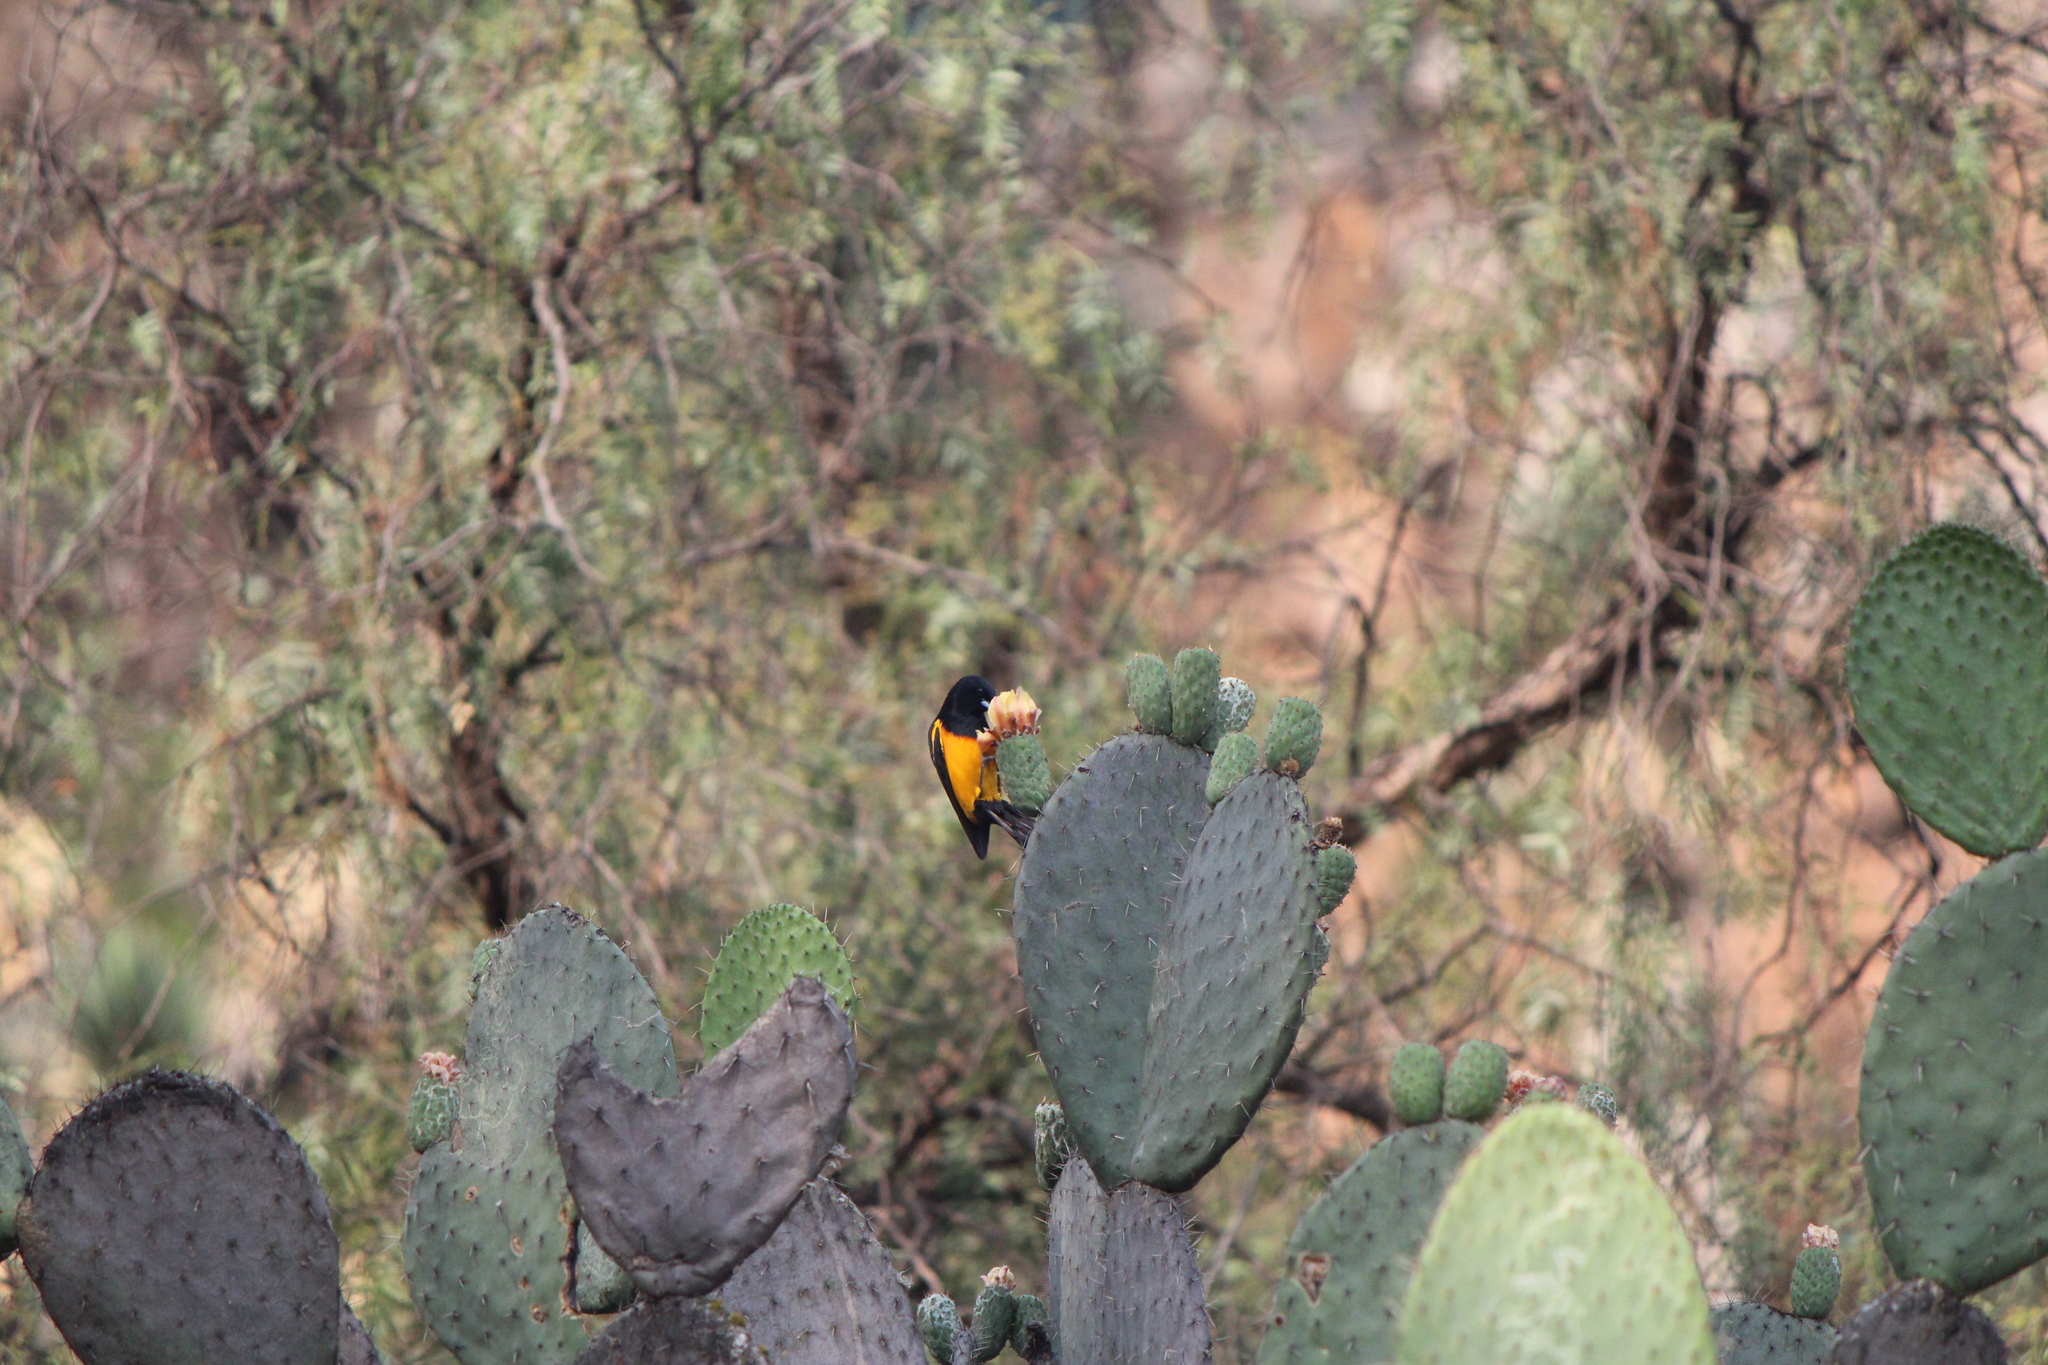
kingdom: Animalia
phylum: Chordata
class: Aves
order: Passeriformes
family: Icteridae
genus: Icterus
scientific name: Icterus wagleri
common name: Black-vented oriole
